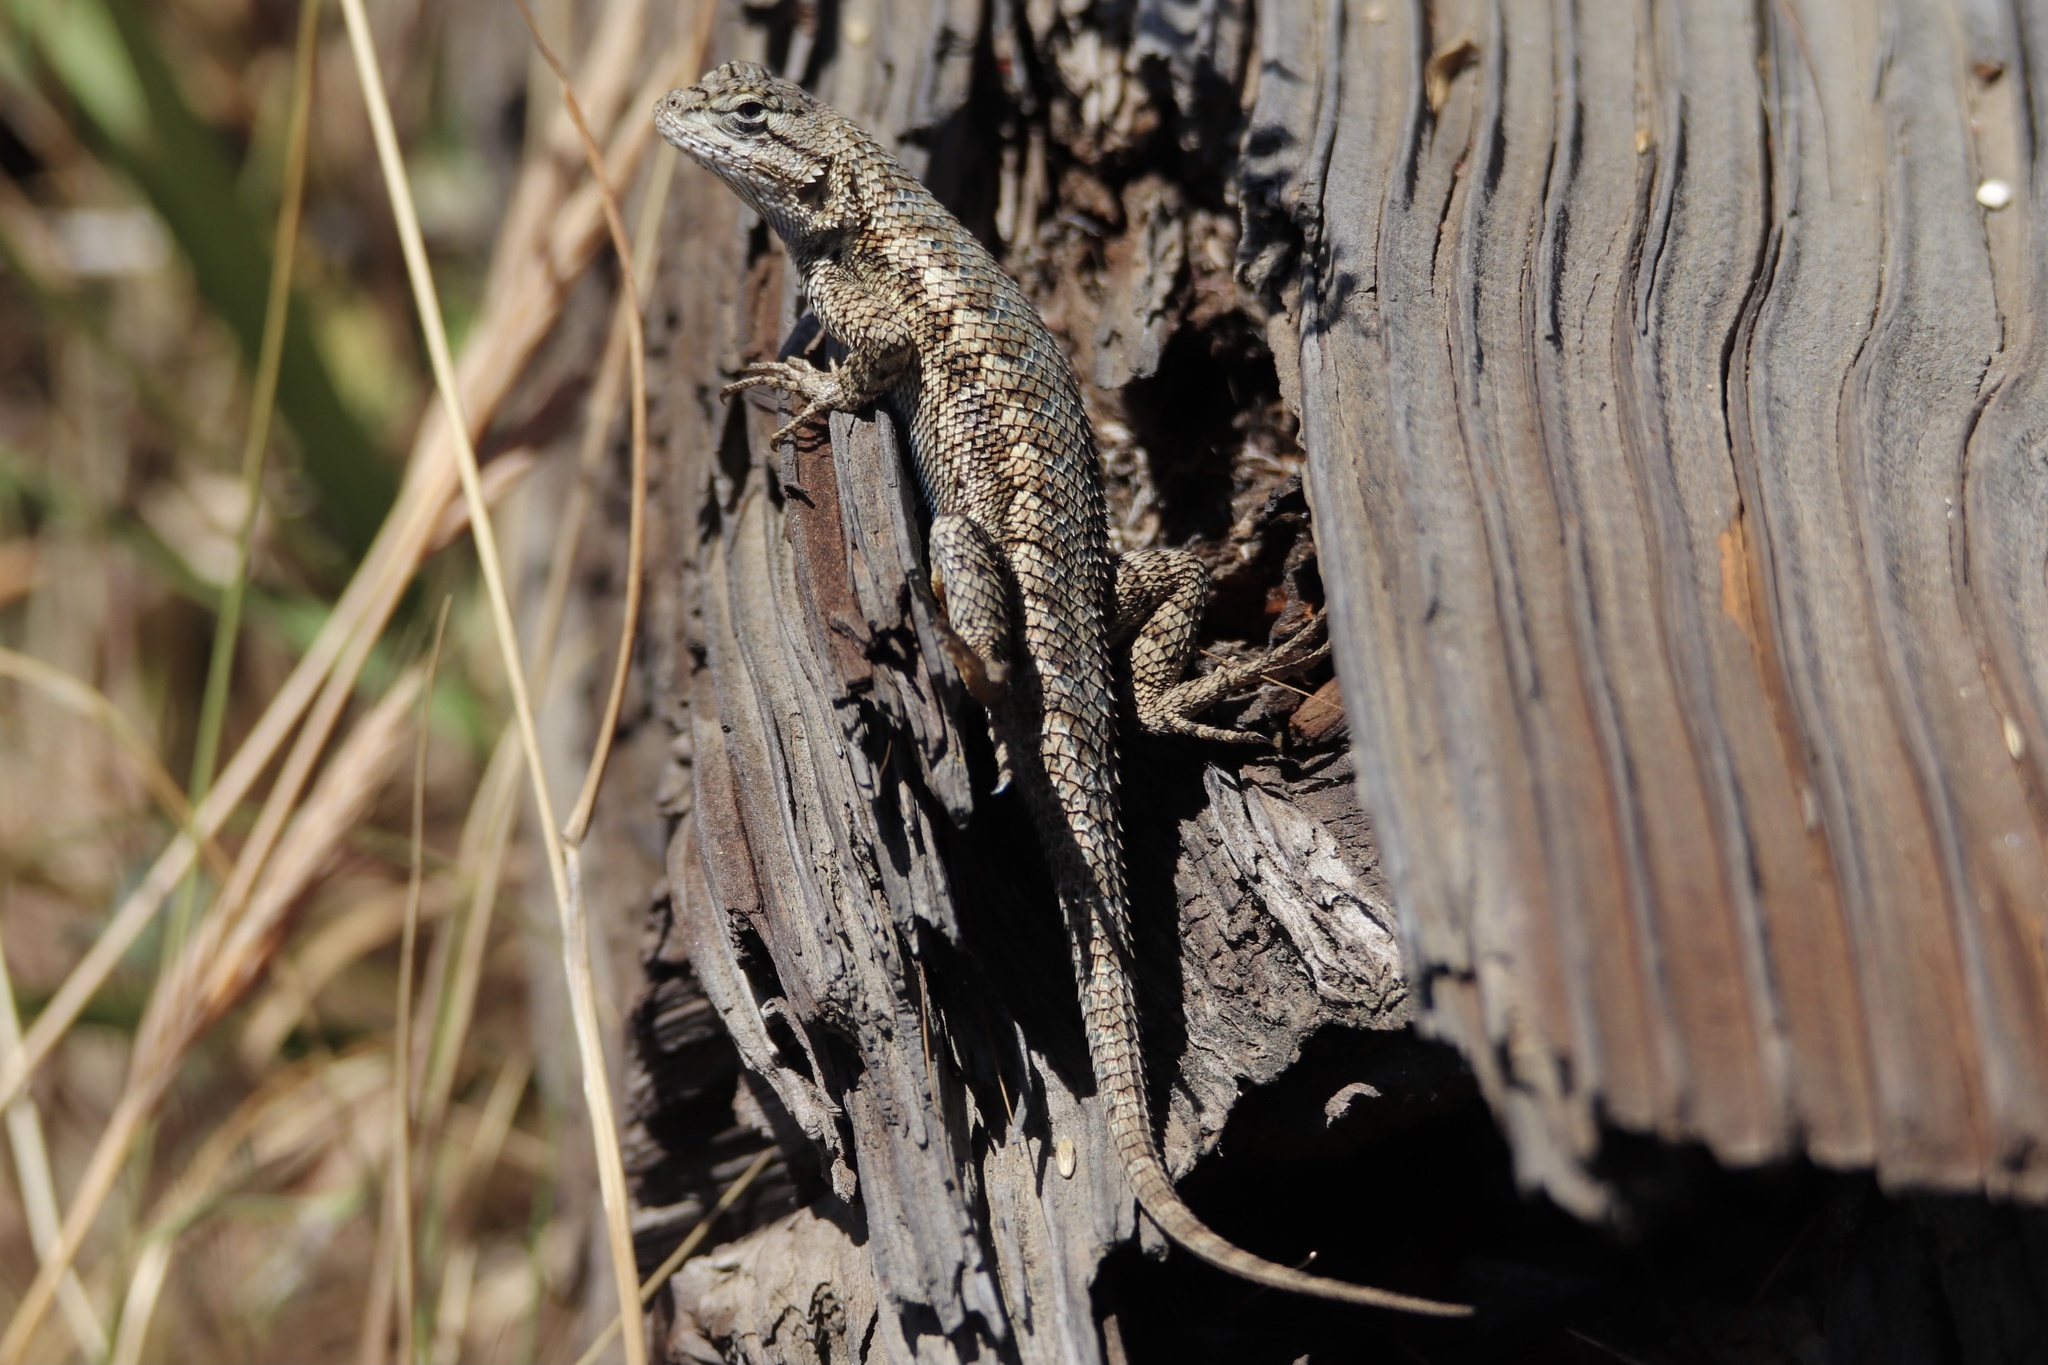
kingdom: Animalia
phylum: Chordata
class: Squamata
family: Phrynosomatidae
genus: Sceloporus
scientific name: Sceloporus occidentalis
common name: Western fence lizard
